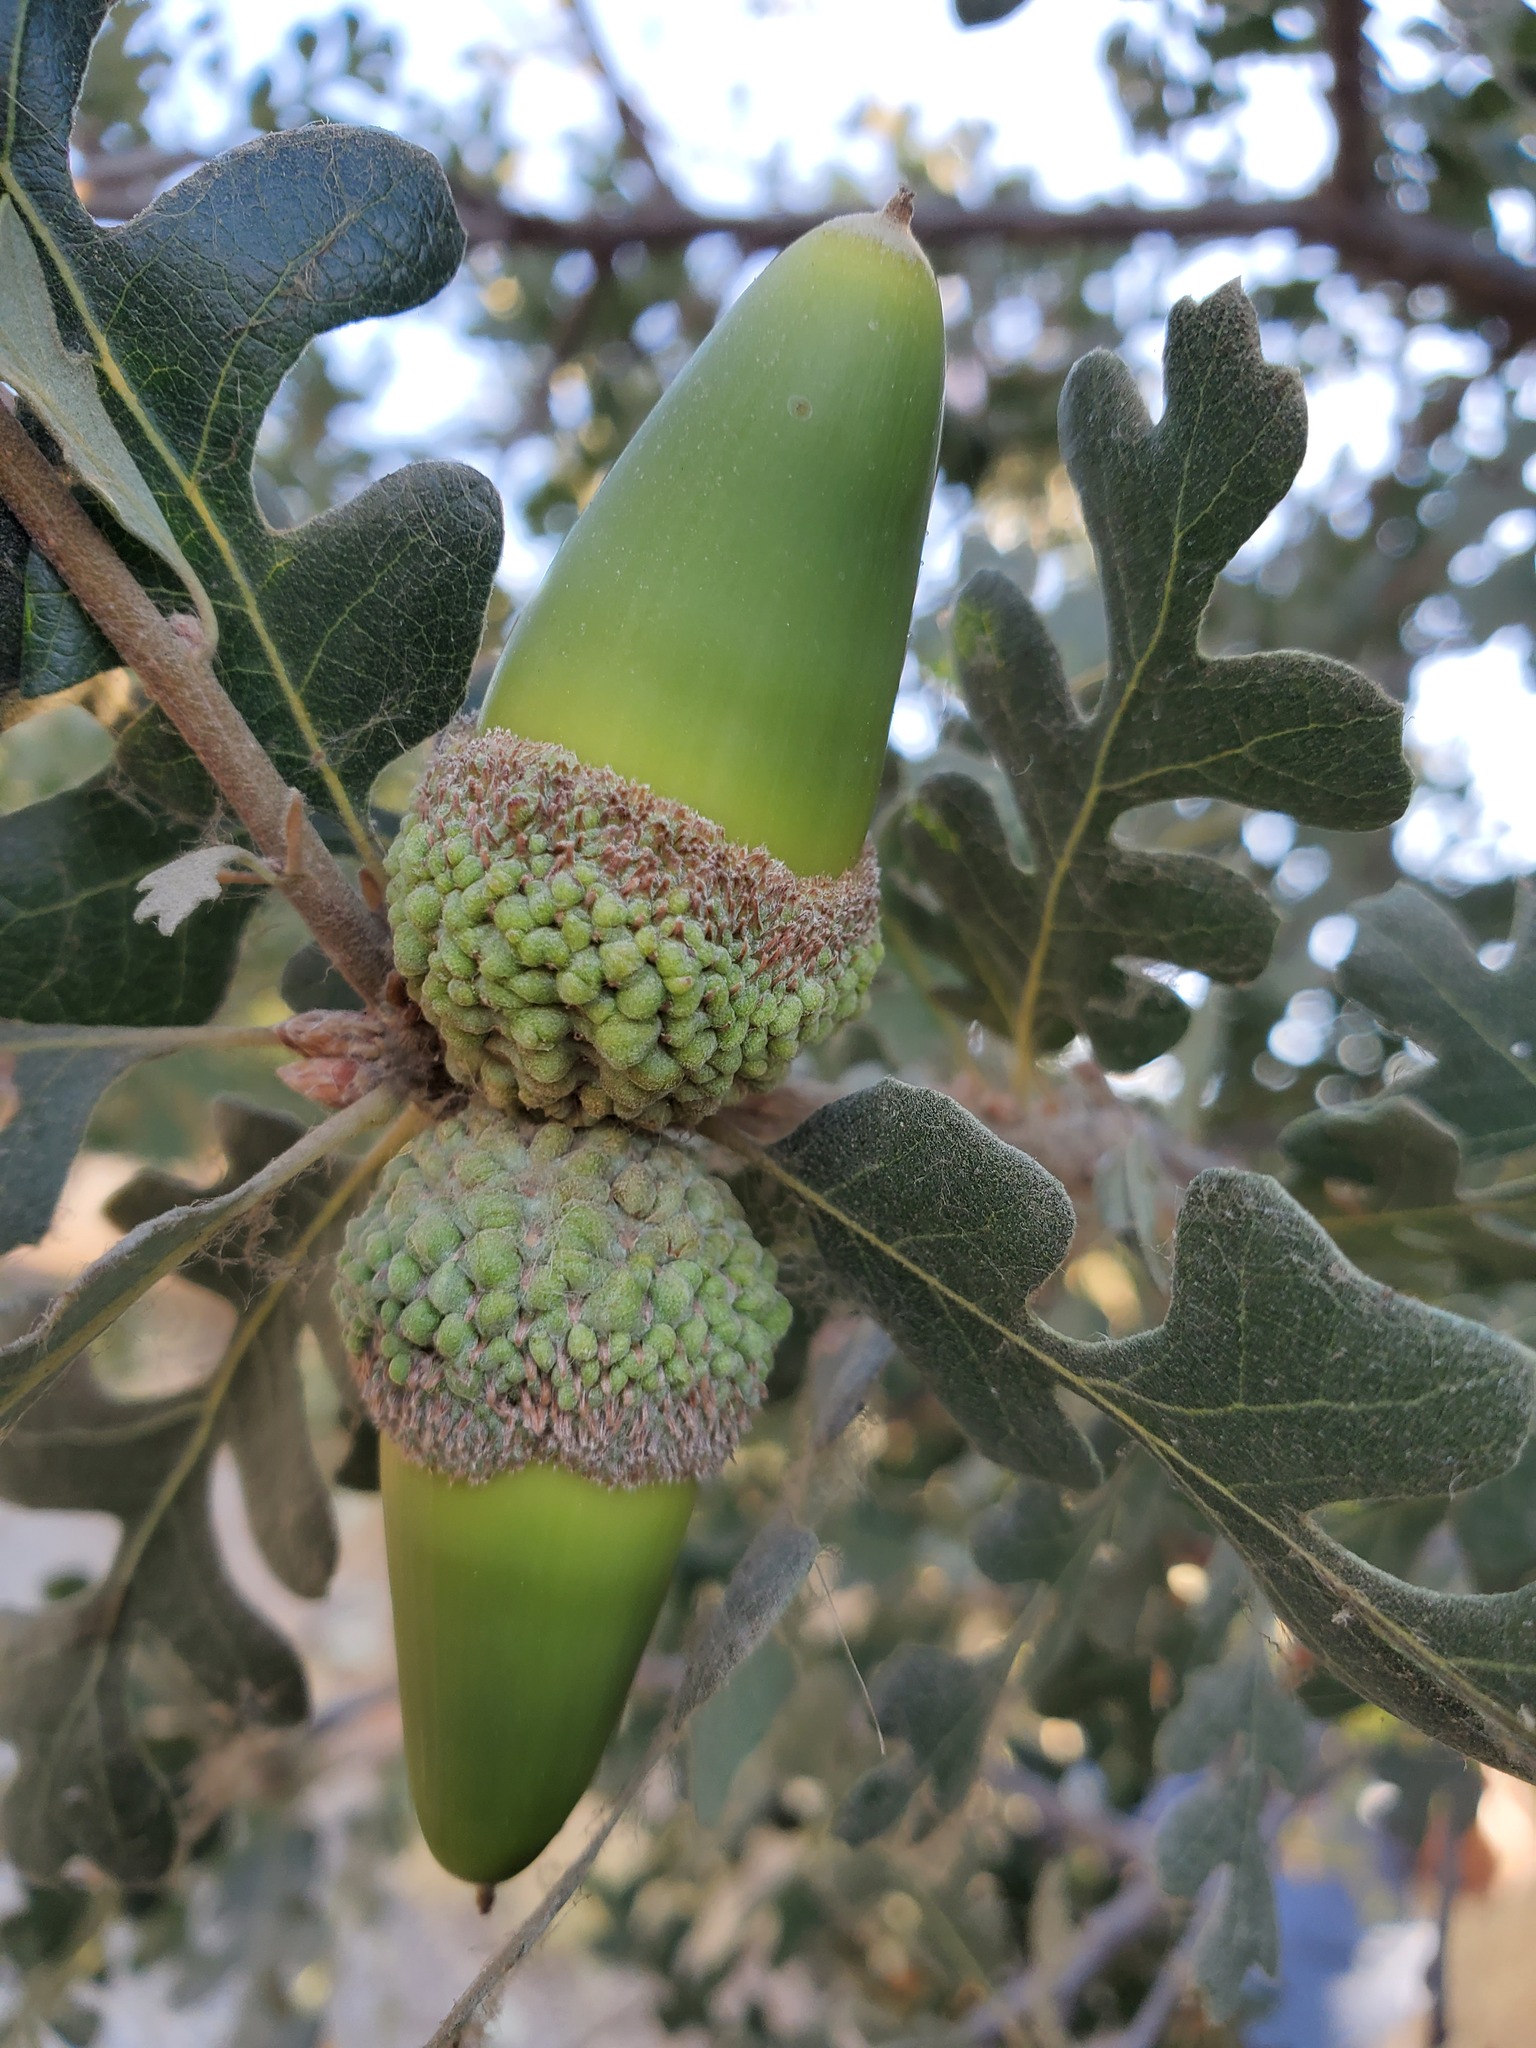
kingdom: Plantae
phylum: Tracheophyta
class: Magnoliopsida
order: Fagales
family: Fagaceae
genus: Quercus
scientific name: Quercus lobata
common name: Valley oak
